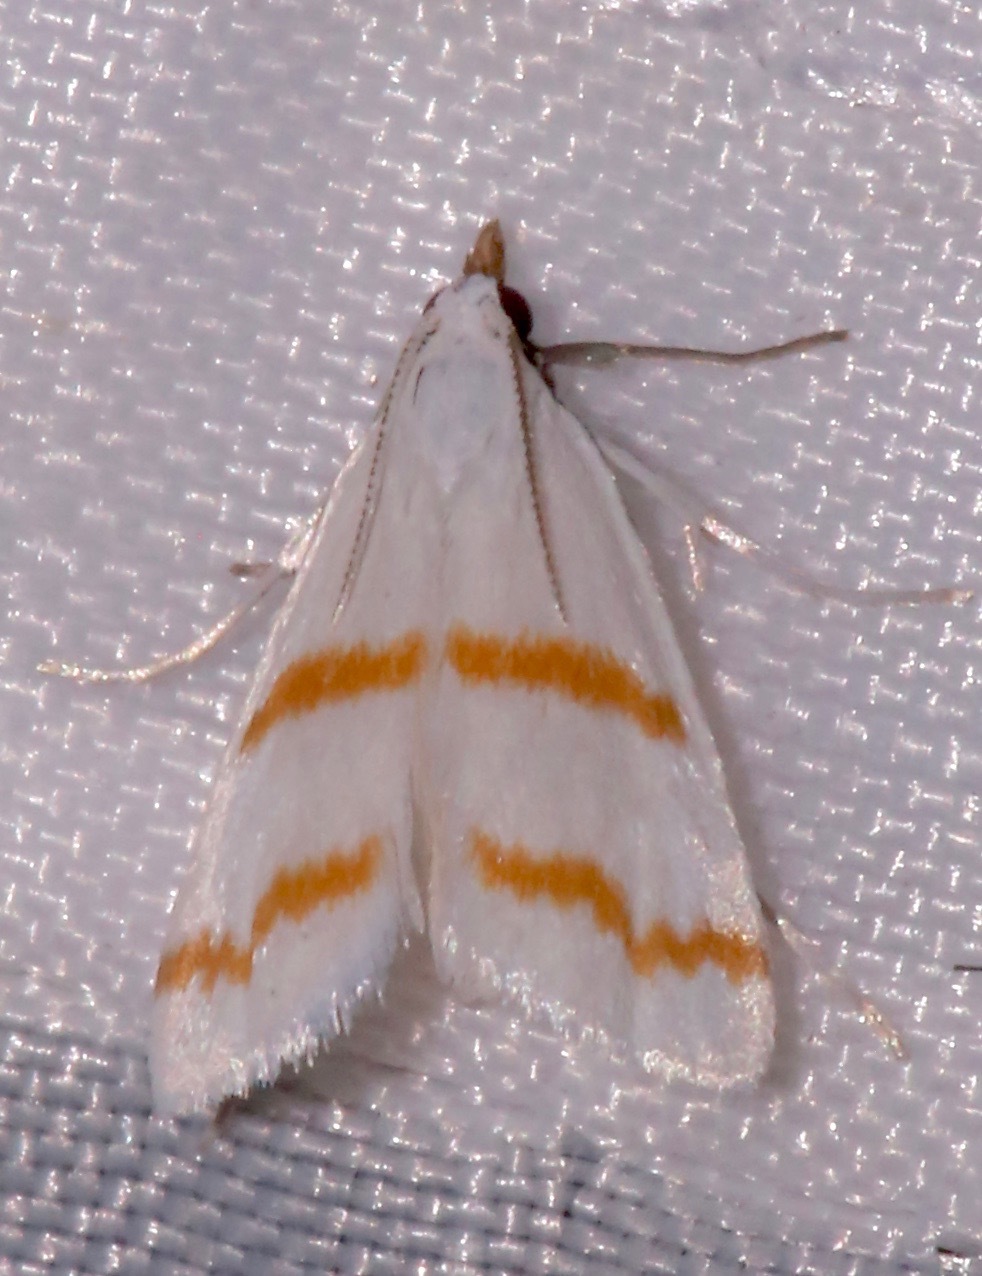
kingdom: Animalia
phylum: Arthropoda
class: Insecta
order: Lepidoptera
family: Crambidae
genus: Patissa
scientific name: Patissa xantholeucalis
